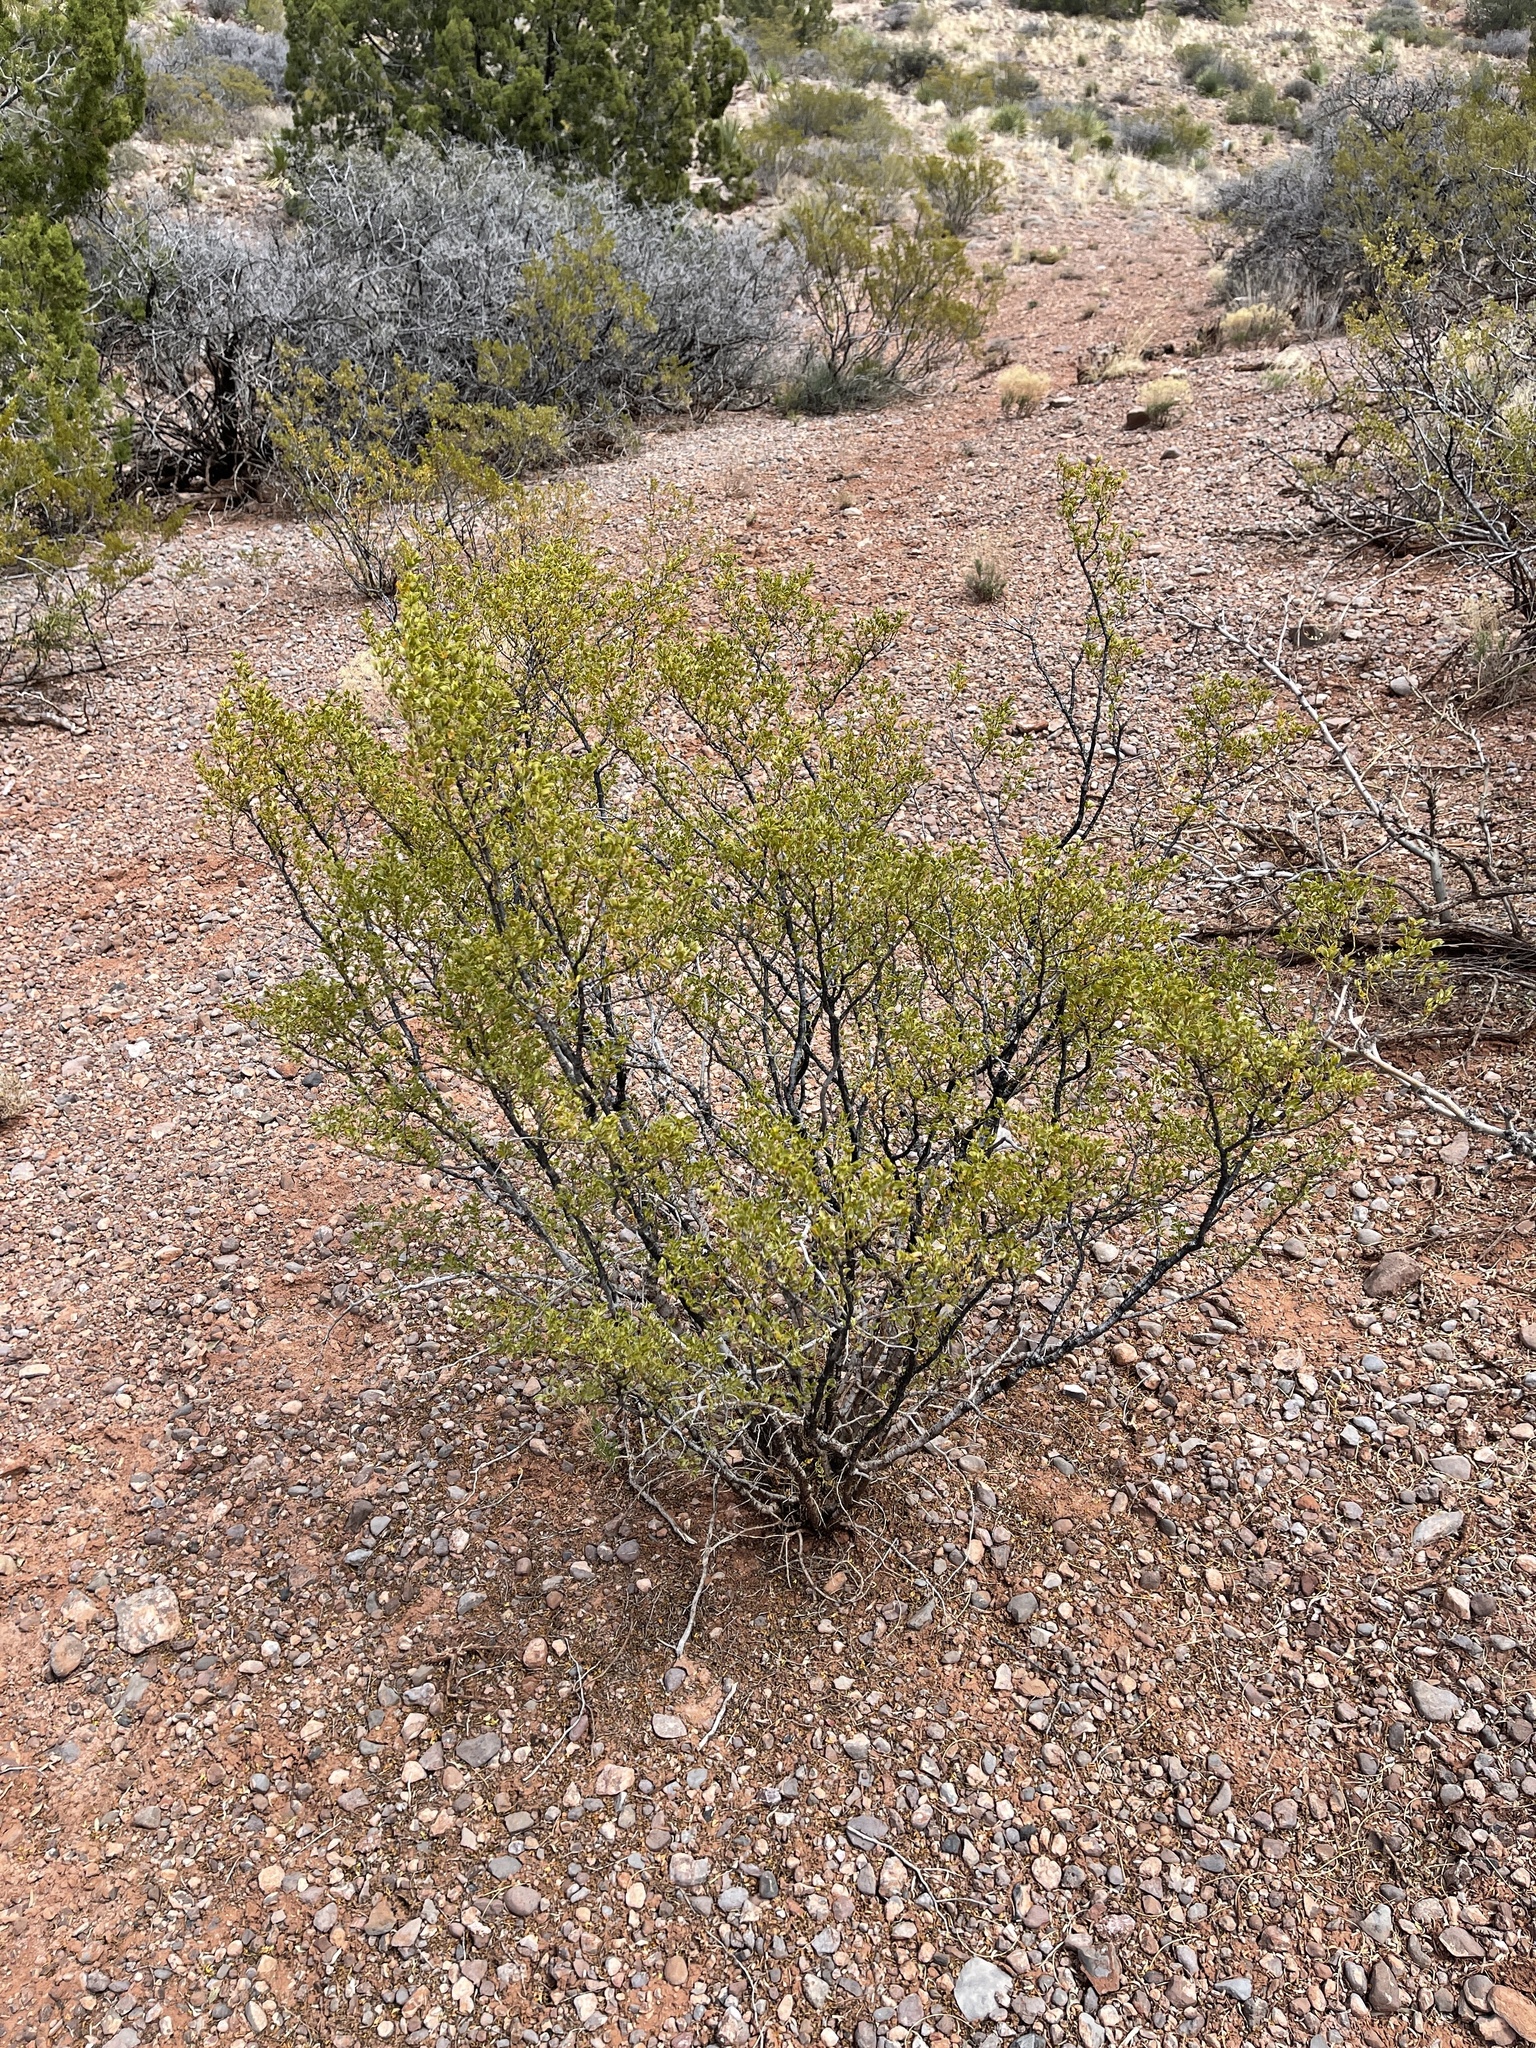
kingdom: Plantae
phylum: Tracheophyta
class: Magnoliopsida
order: Zygophyllales
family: Zygophyllaceae
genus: Larrea
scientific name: Larrea tridentata
